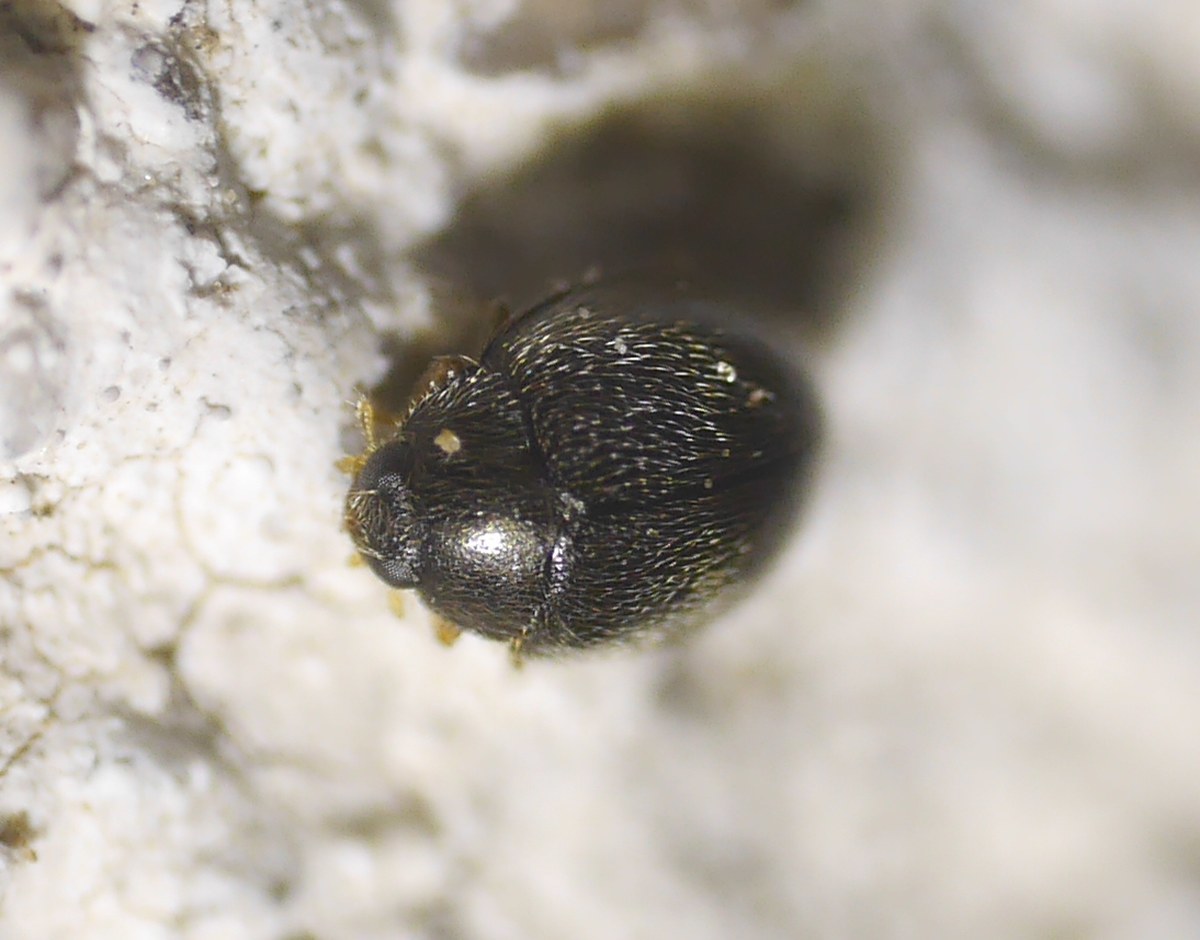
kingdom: Animalia
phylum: Arthropoda
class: Insecta
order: Coleoptera
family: Coccinellidae
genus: Stethorus
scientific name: Stethorus pusillus
